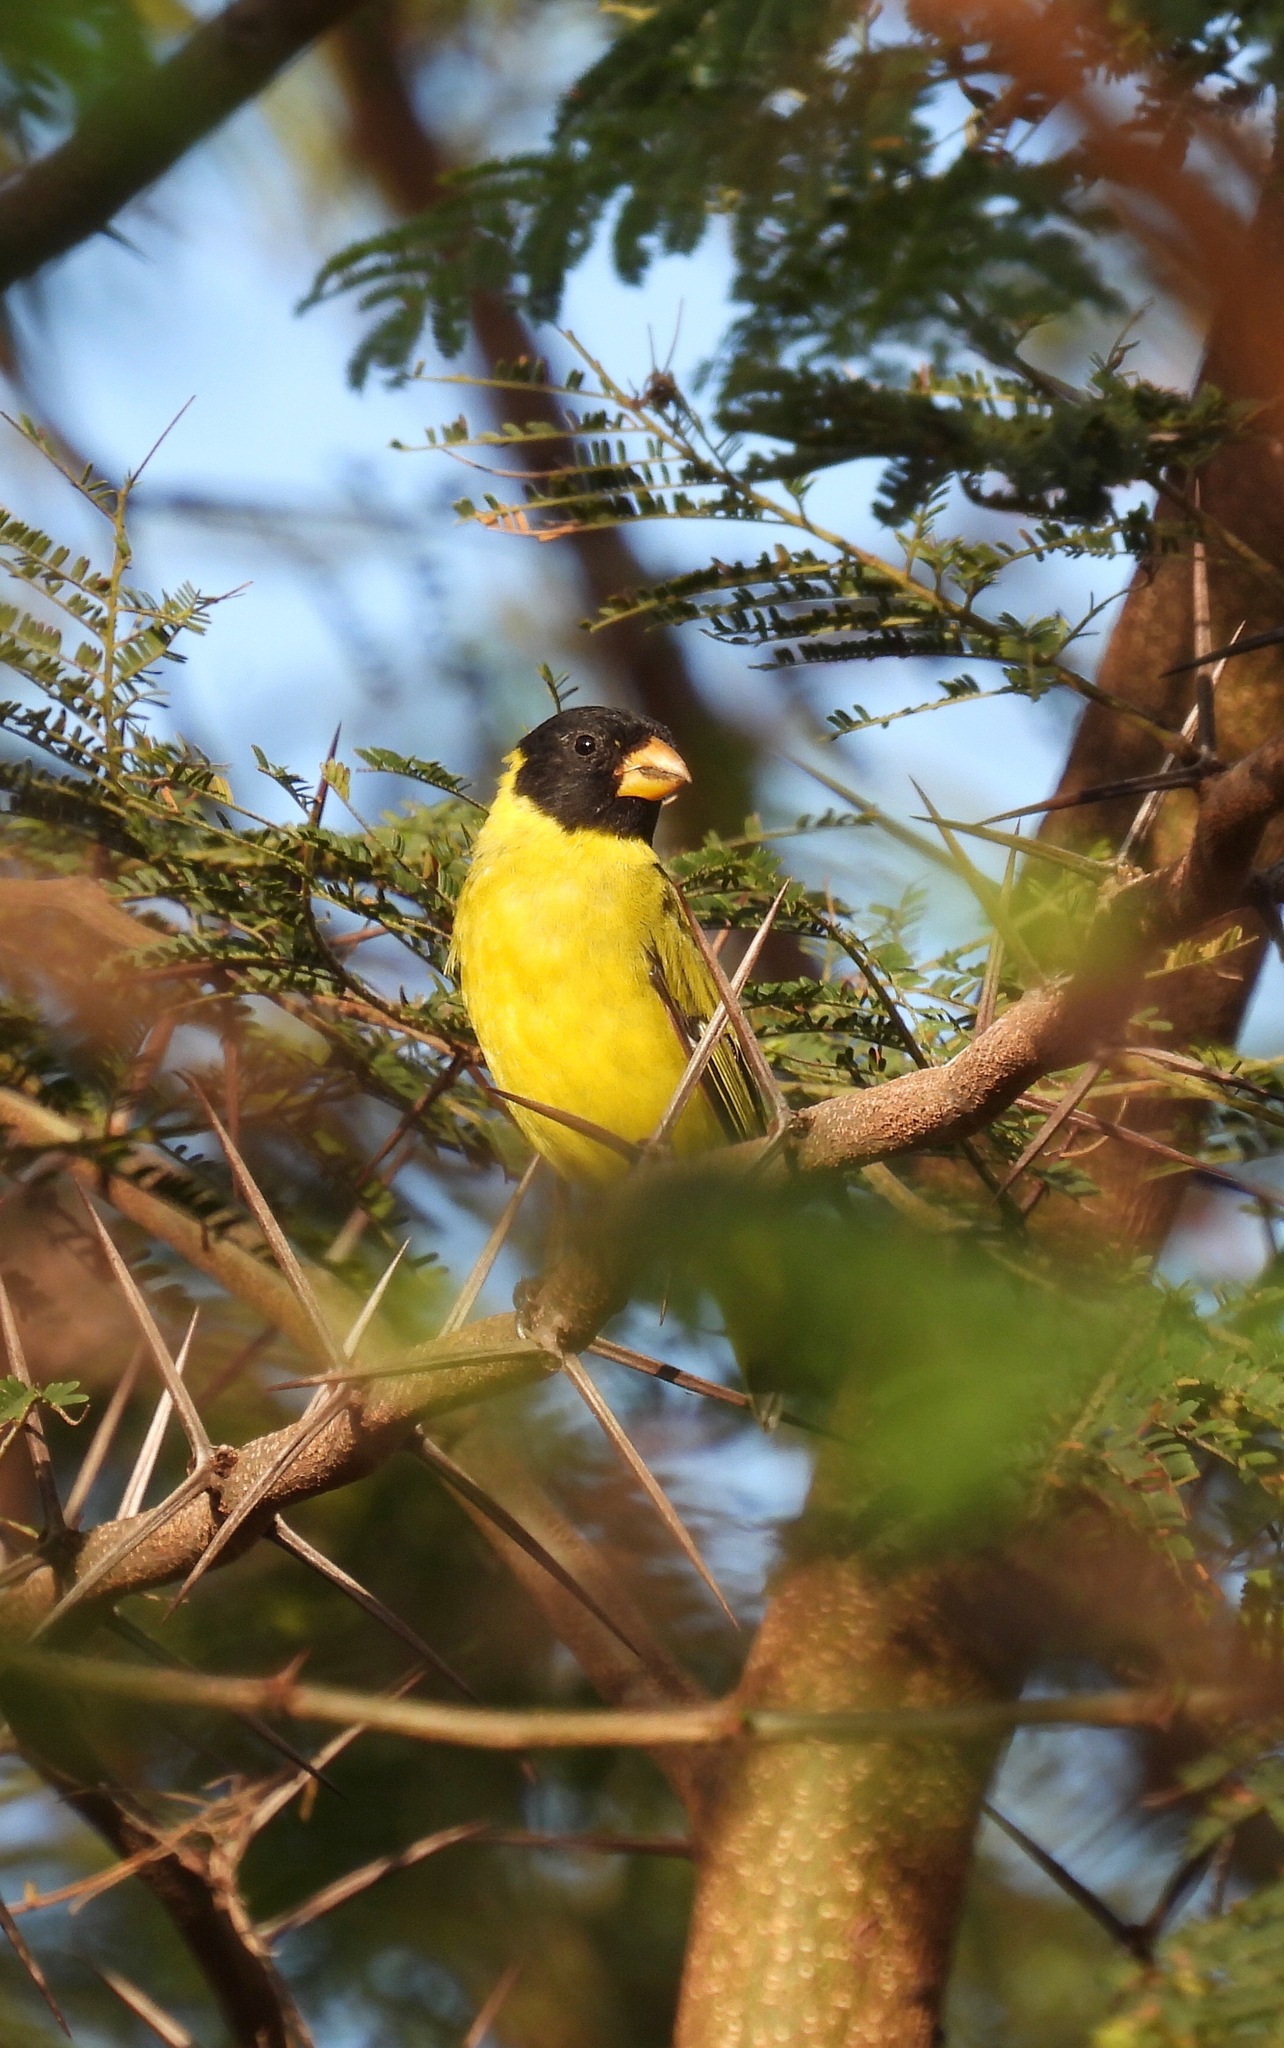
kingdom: Animalia
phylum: Chordata
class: Aves
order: Passeriformes
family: Fringillidae
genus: Spinus
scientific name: Spinus dominicensis
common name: Antillean siskin
